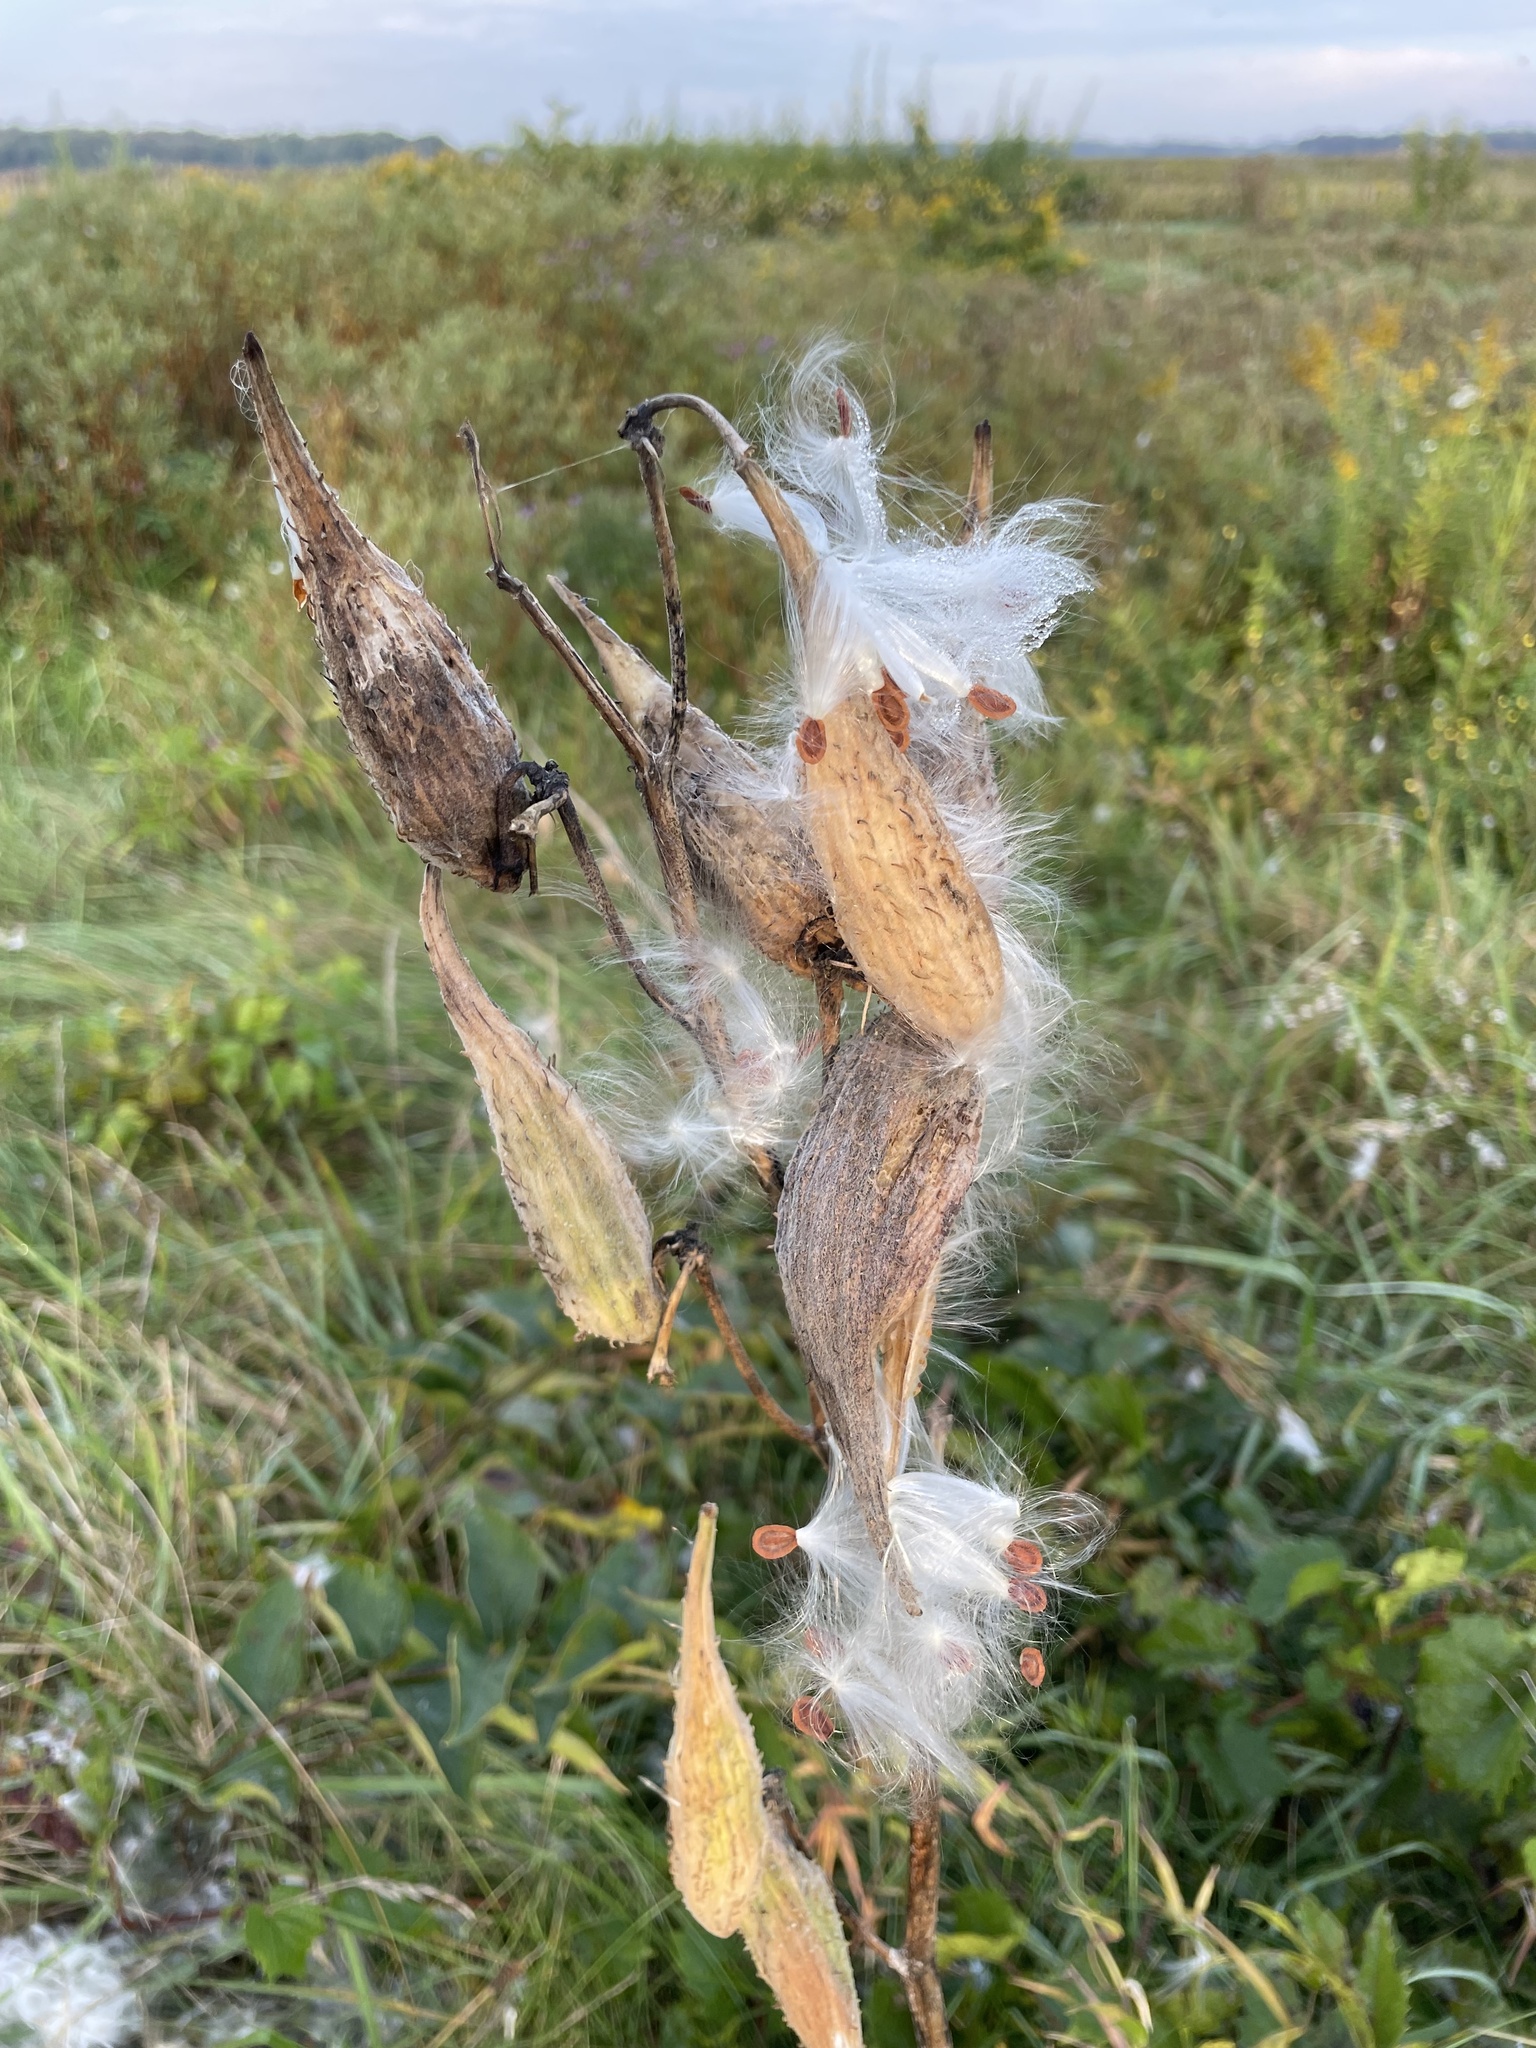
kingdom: Plantae
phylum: Tracheophyta
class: Magnoliopsida
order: Gentianales
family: Apocynaceae
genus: Asclepias
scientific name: Asclepias syriaca
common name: Common milkweed
